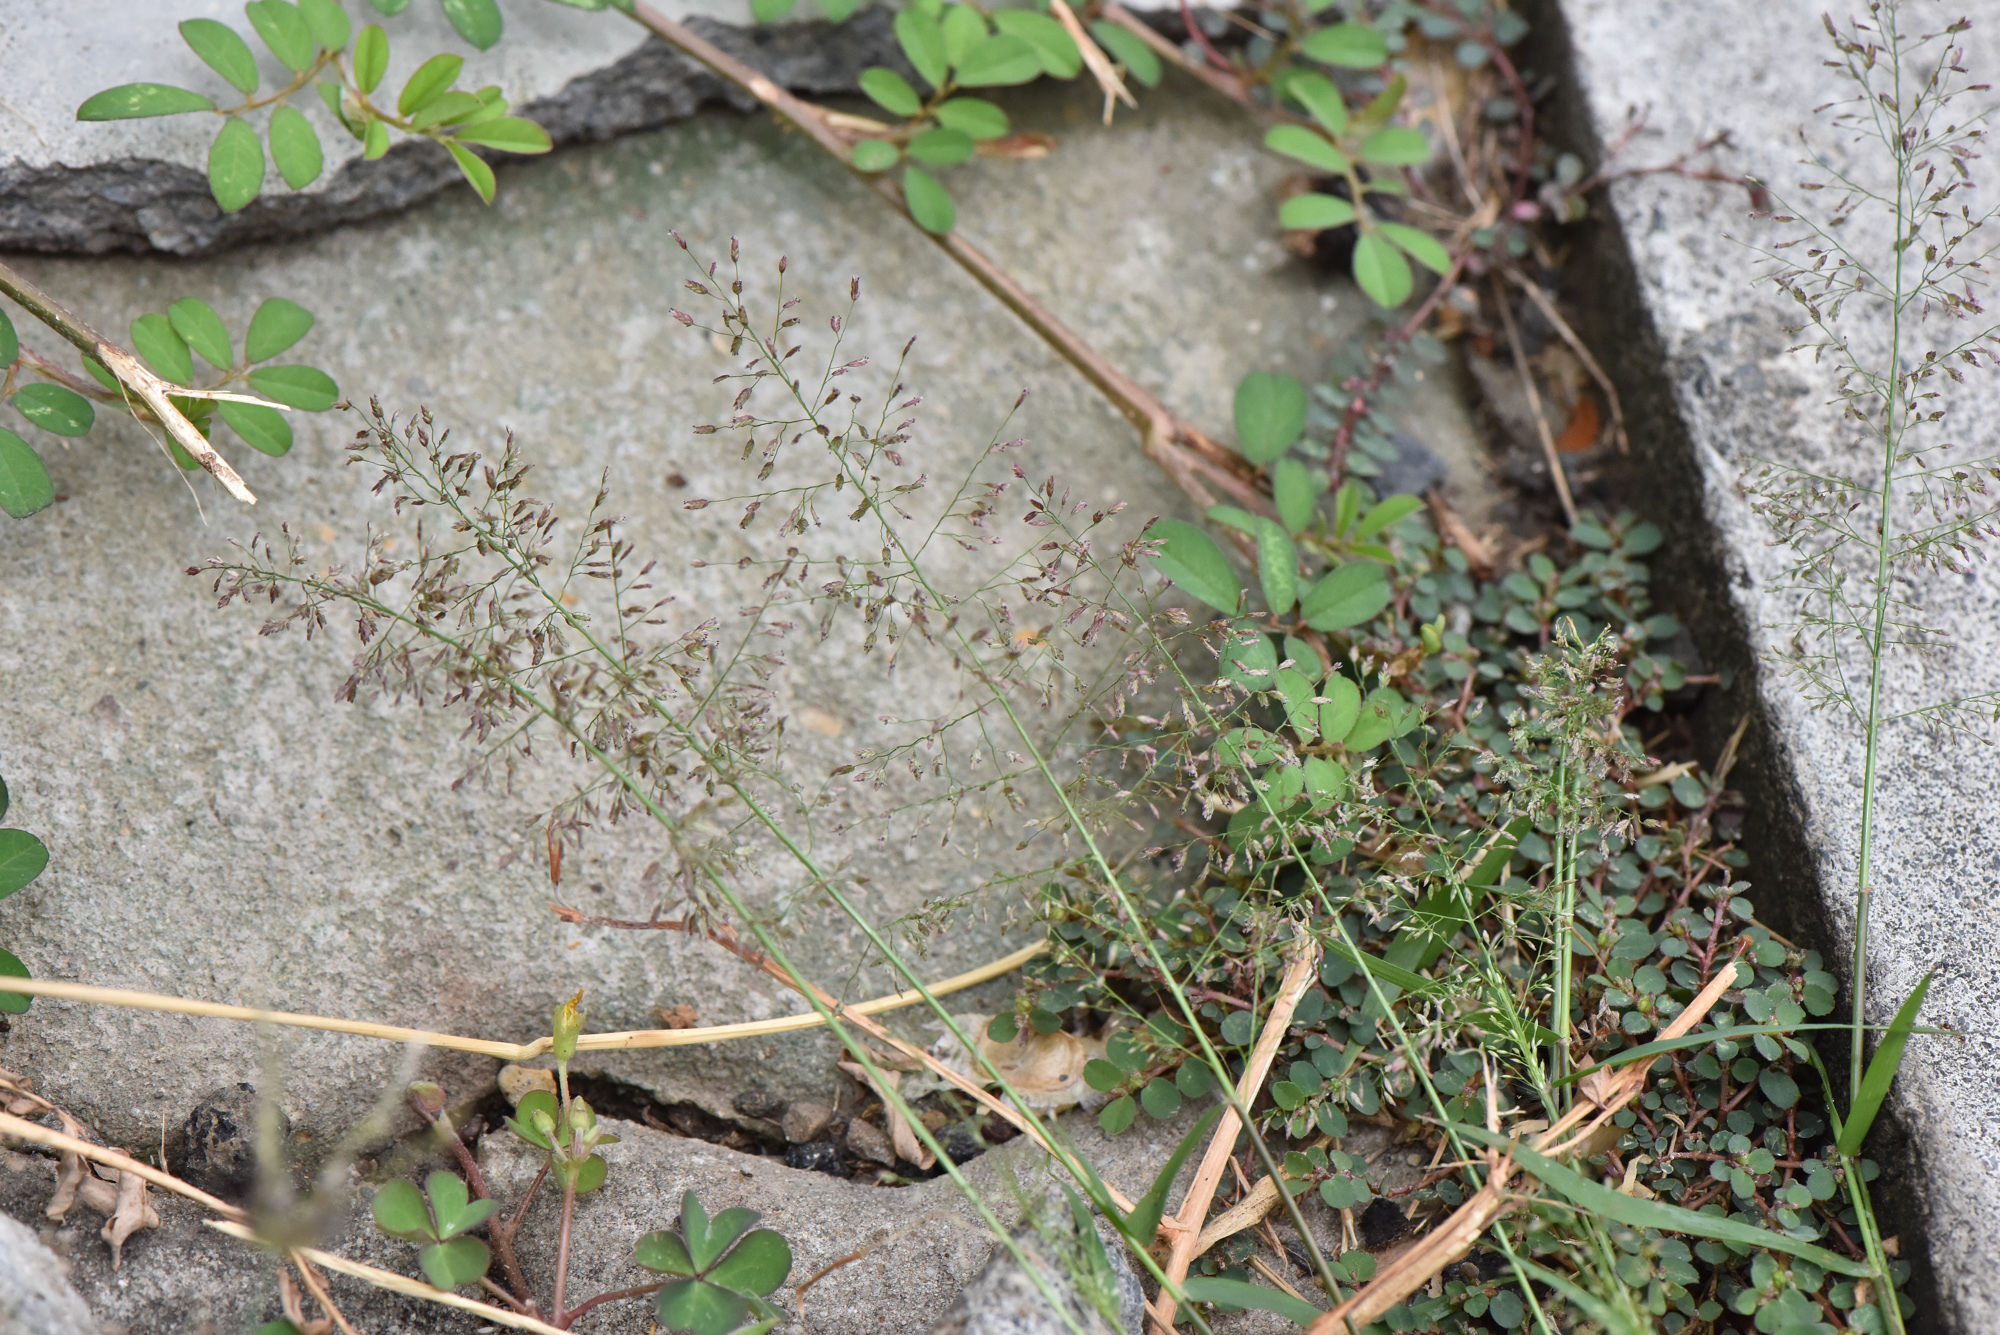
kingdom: Plantae
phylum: Tracheophyta
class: Liliopsida
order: Poales
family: Poaceae
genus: Eragrostis
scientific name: Eragrostis tenella
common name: Japanese lovegrass
